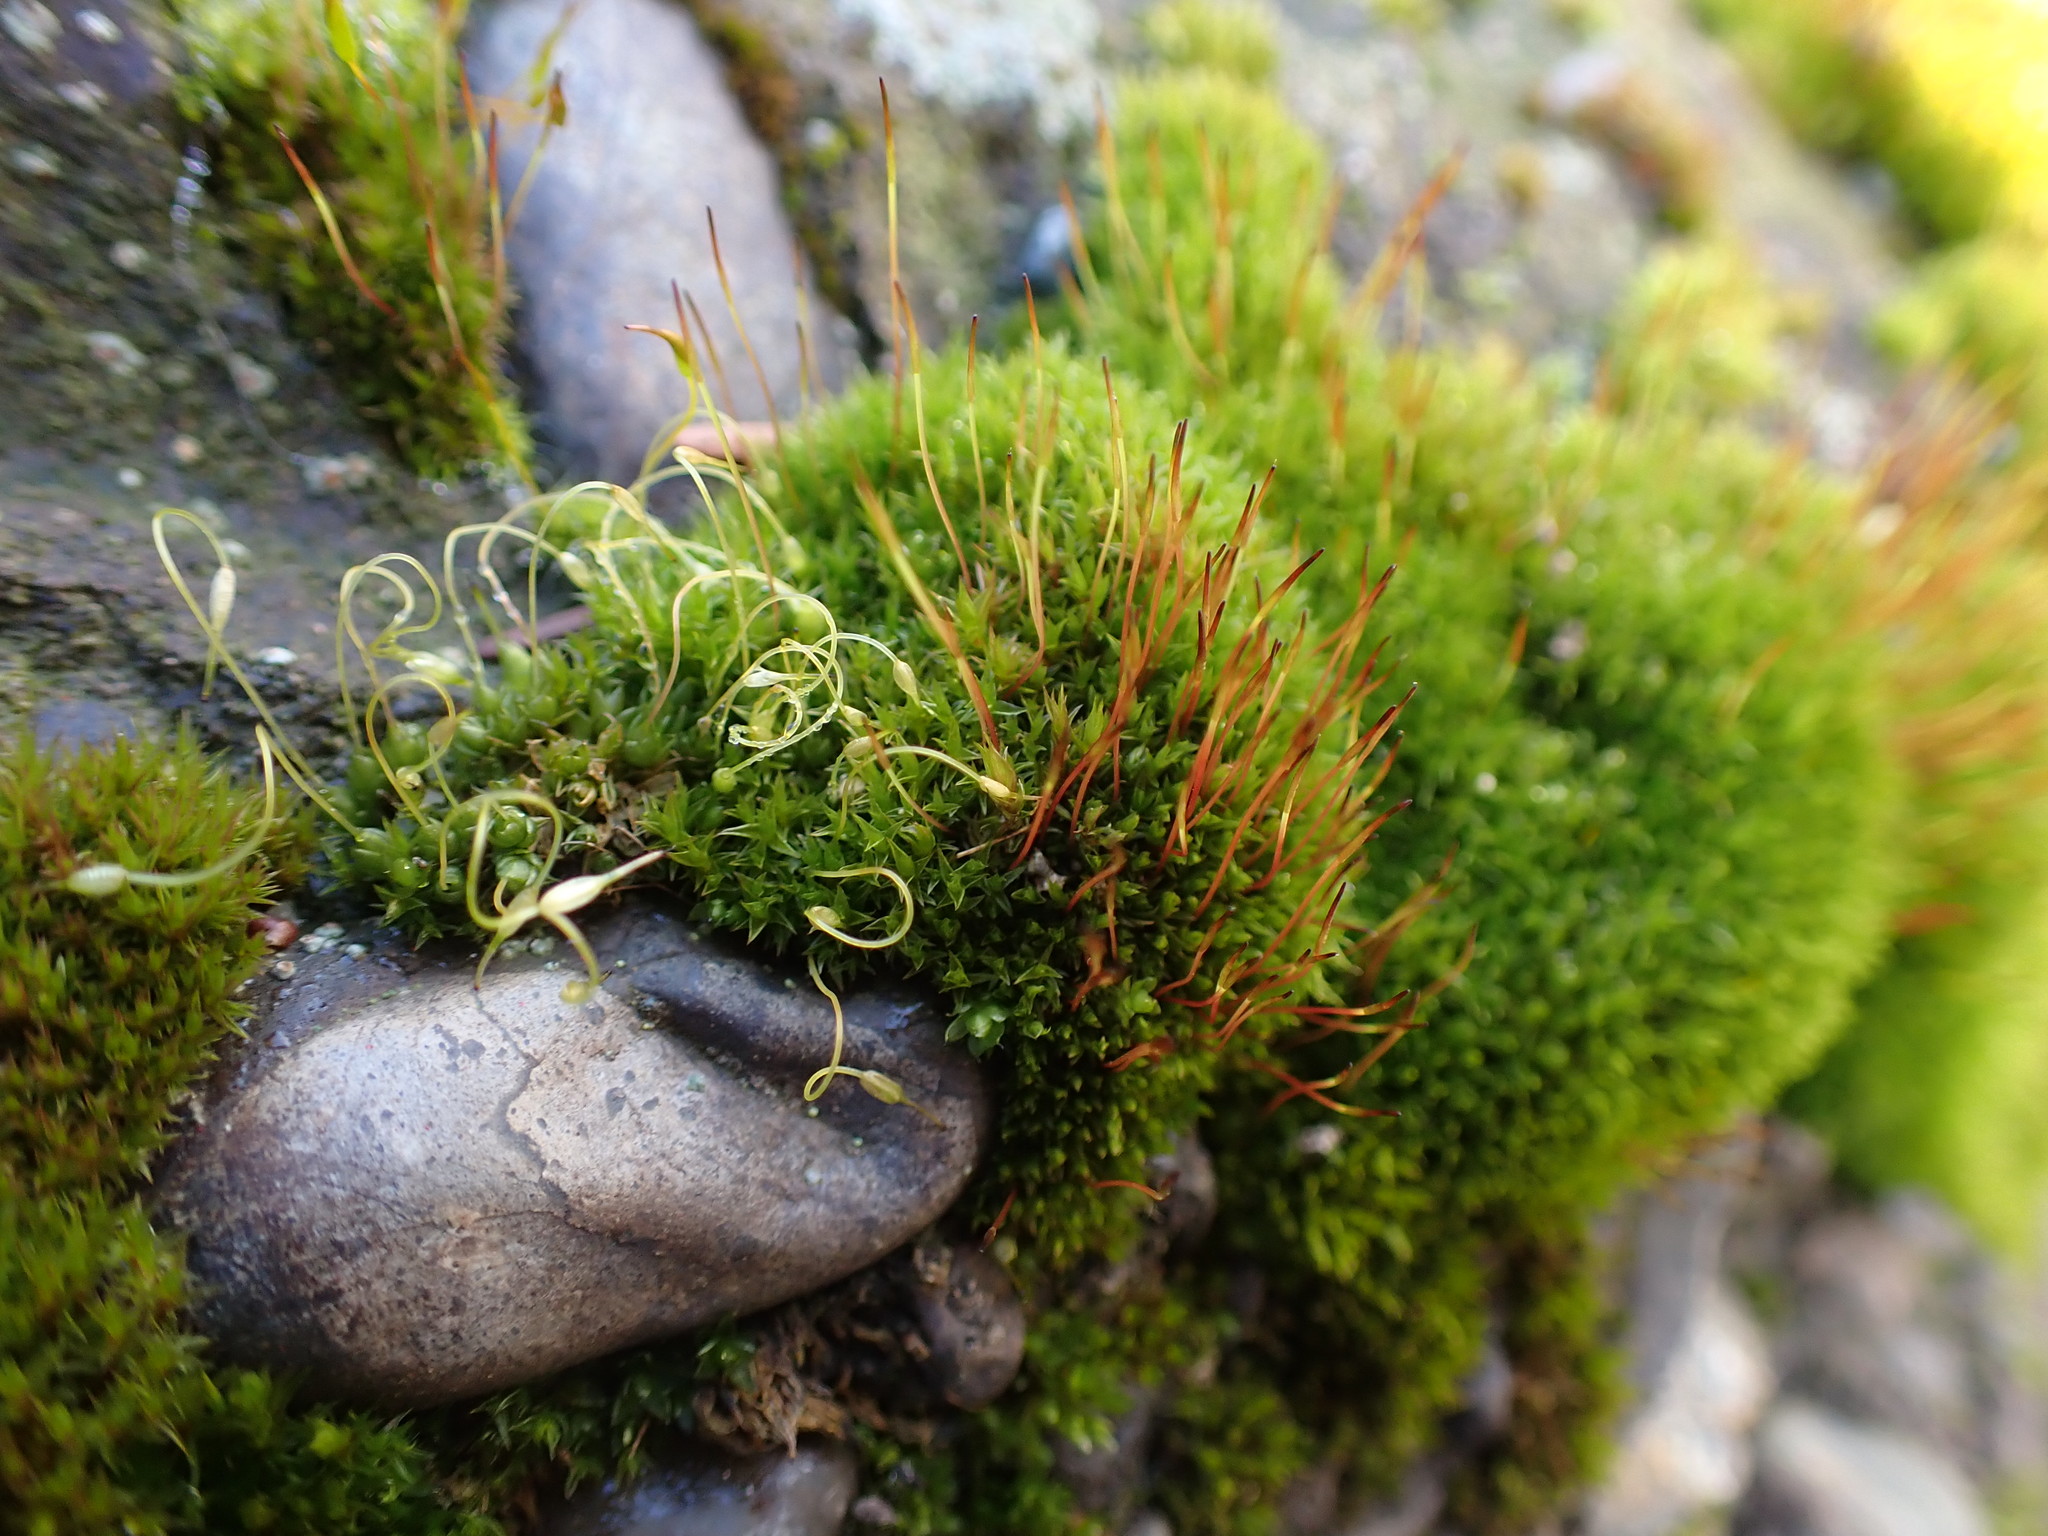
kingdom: Plantae
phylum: Bryophyta
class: Bryopsida
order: Funariales
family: Funariaceae
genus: Funaria
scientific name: Funaria hygrometrica
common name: Common cord moss
